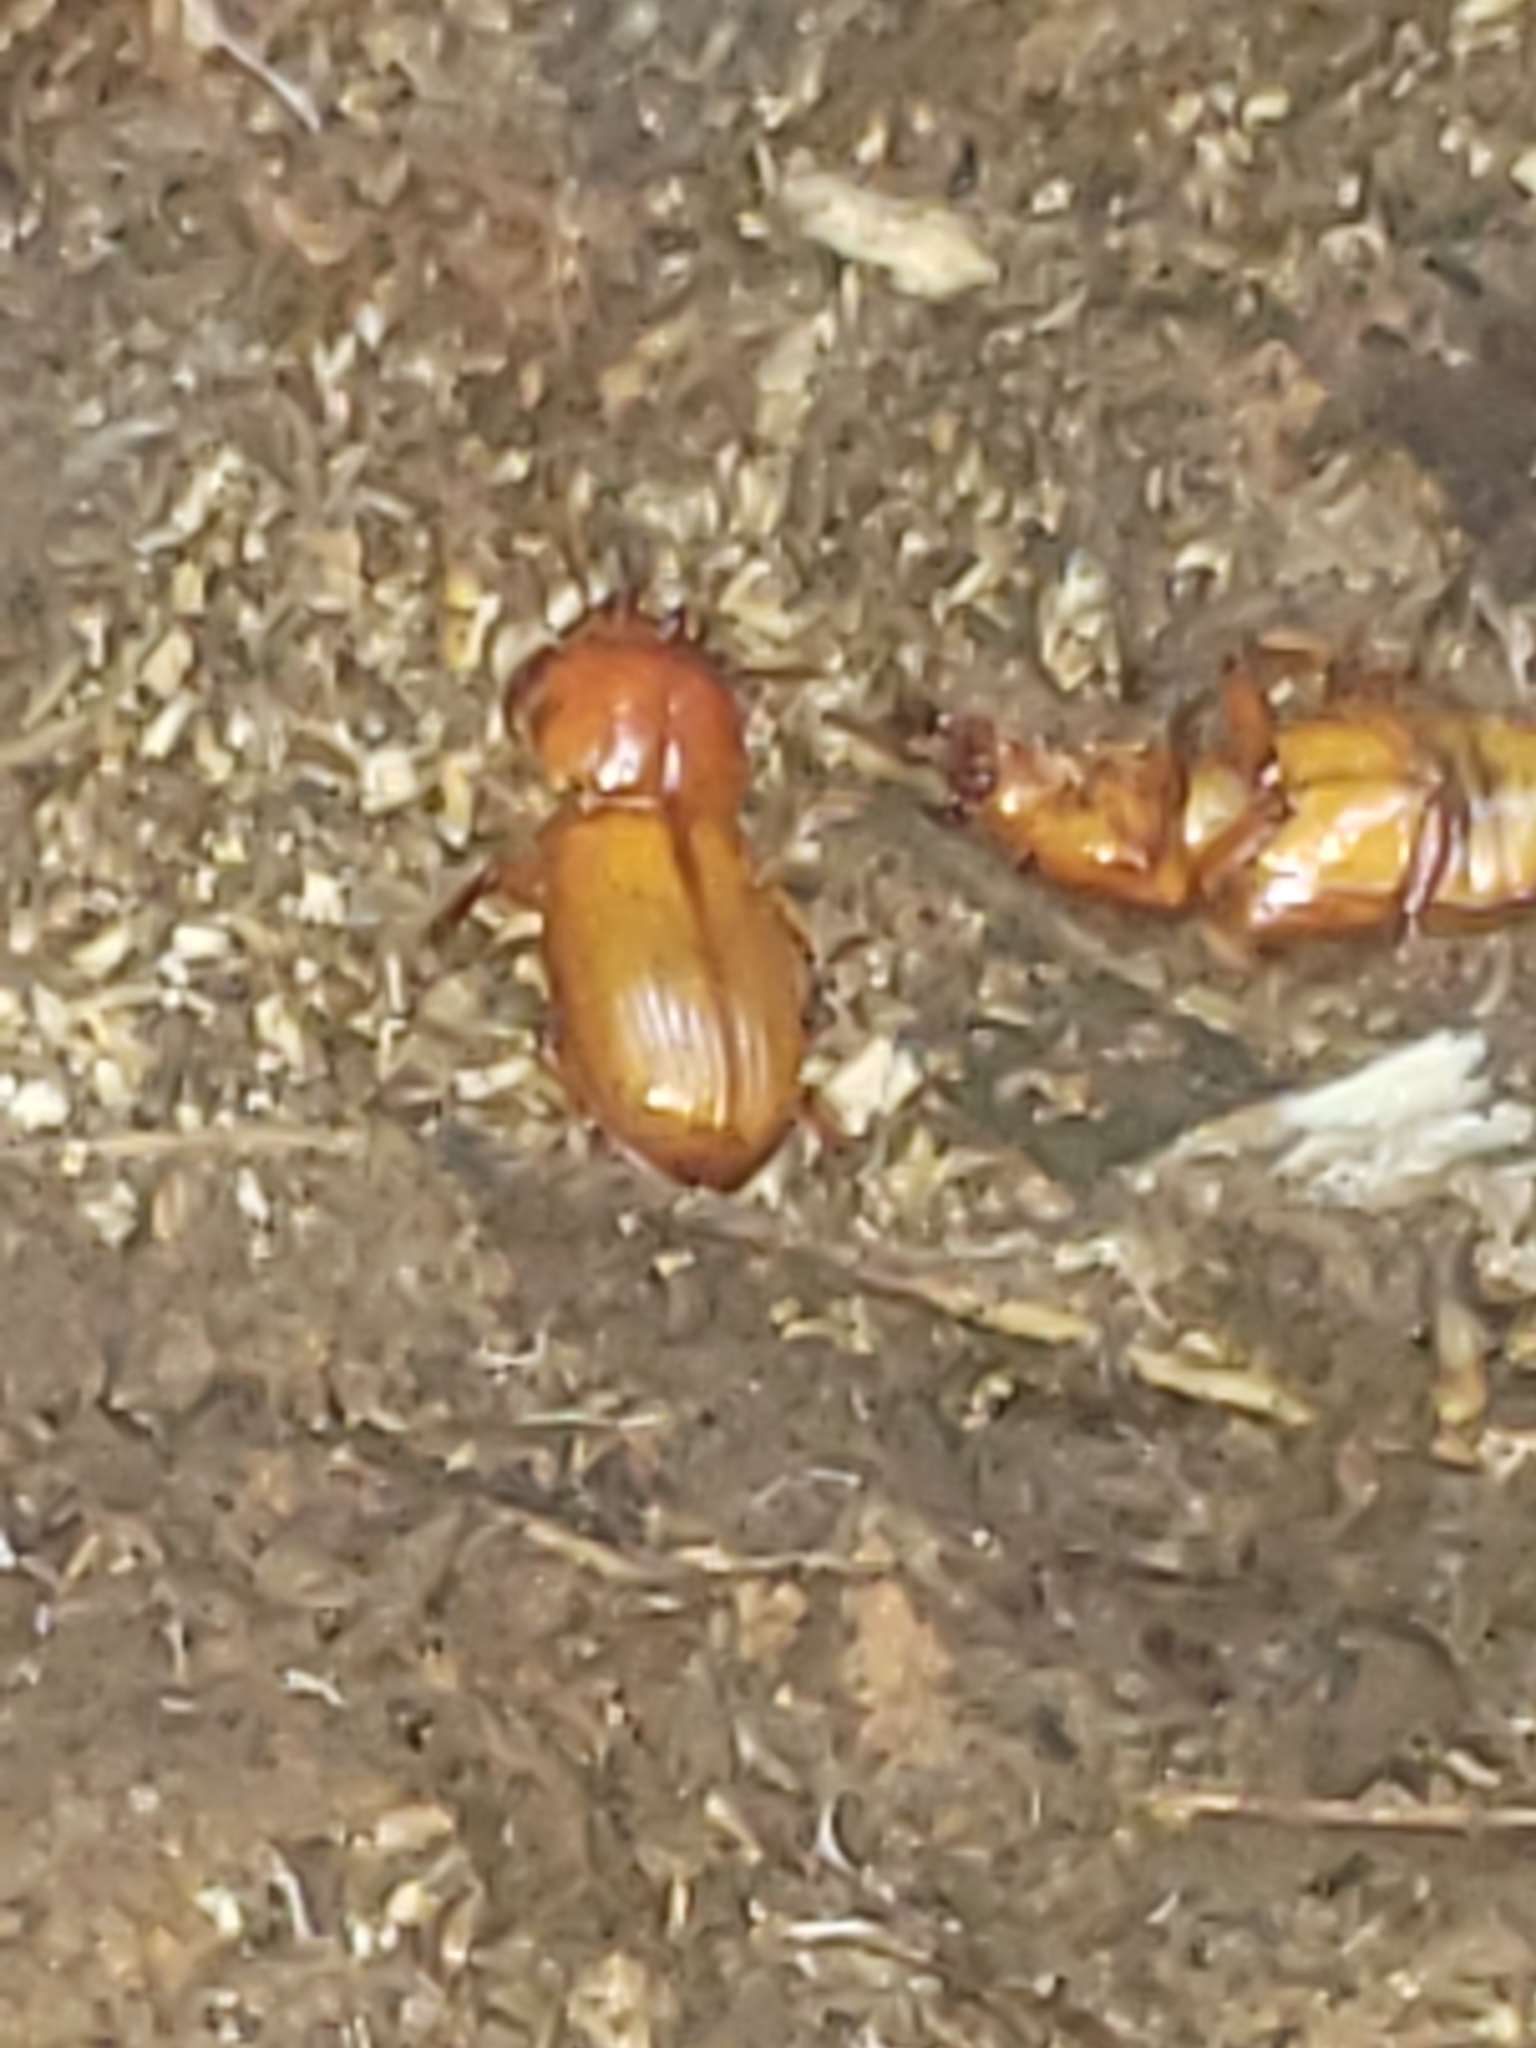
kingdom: Animalia
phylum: Arthropoda
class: Insecta
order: Coleoptera
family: Passalidae
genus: Odontotaenius
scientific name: Odontotaenius disjunctus
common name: Patent leather beetle
